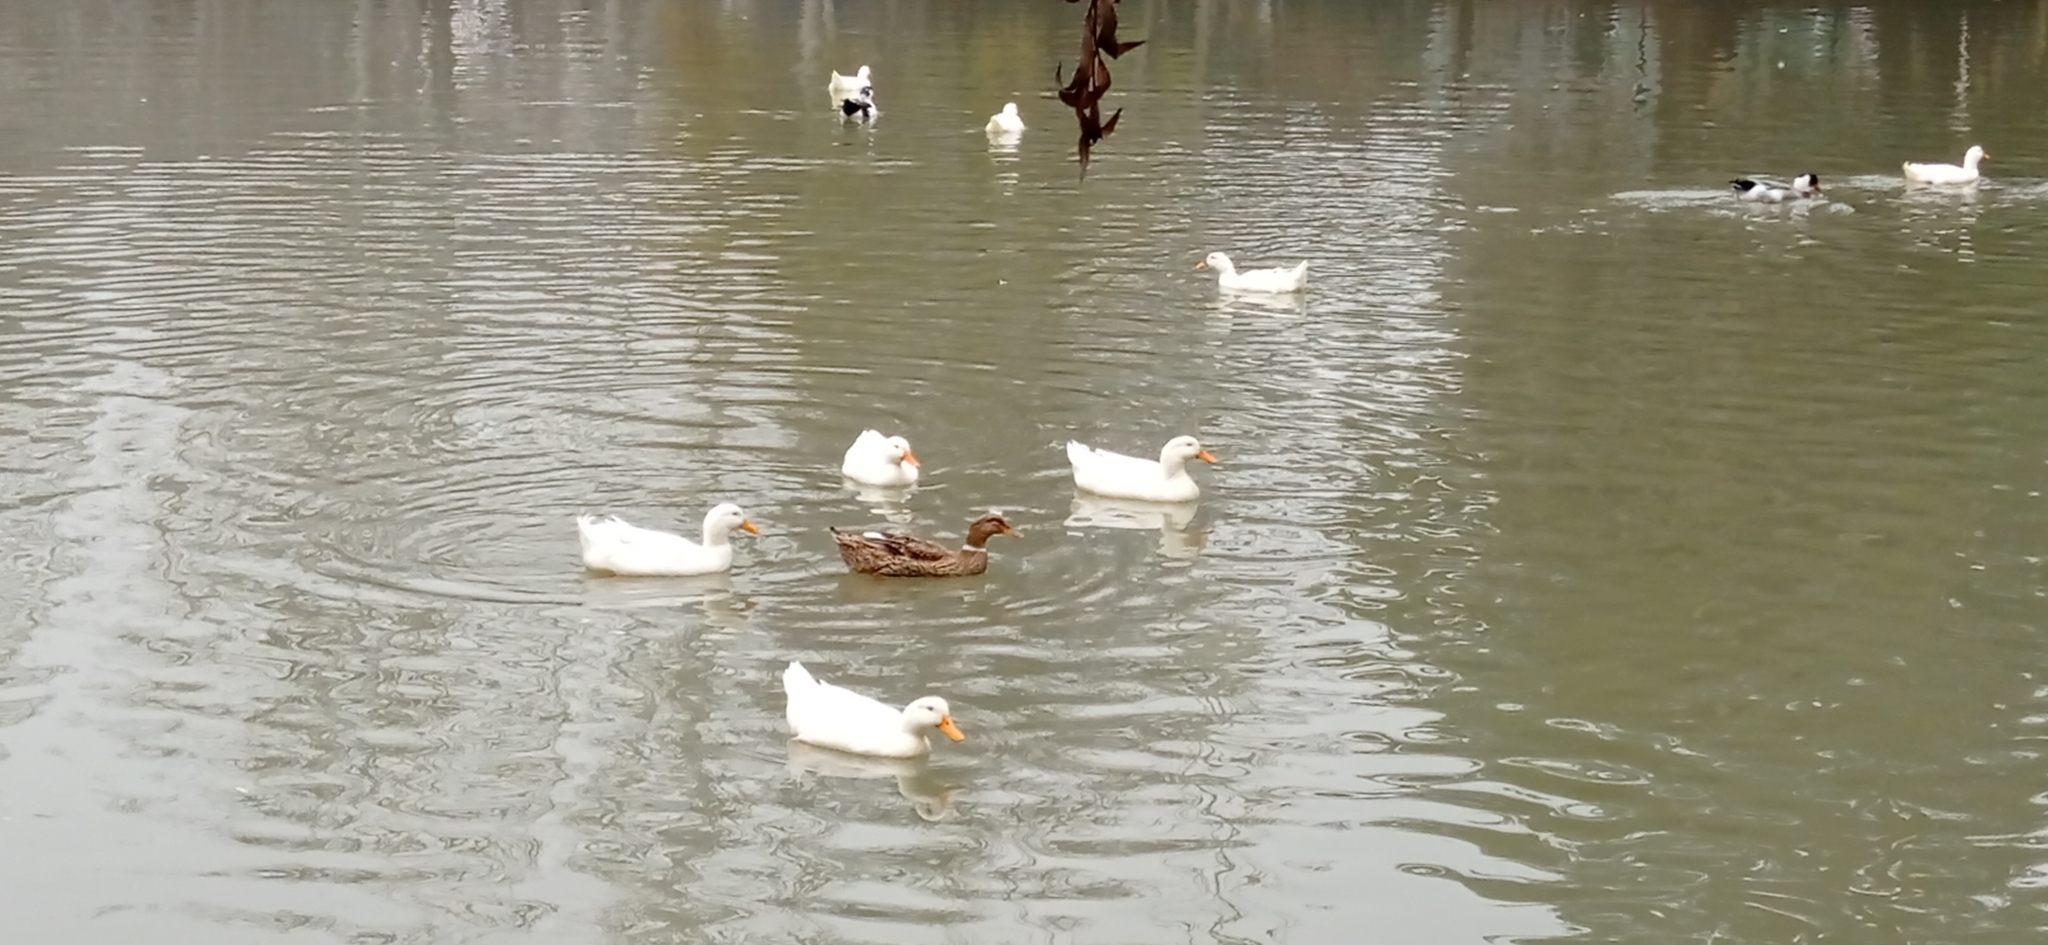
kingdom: Animalia
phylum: Chordata
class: Aves
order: Anseriformes
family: Anatidae
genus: Anas
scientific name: Anas platyrhynchos
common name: Mallard
